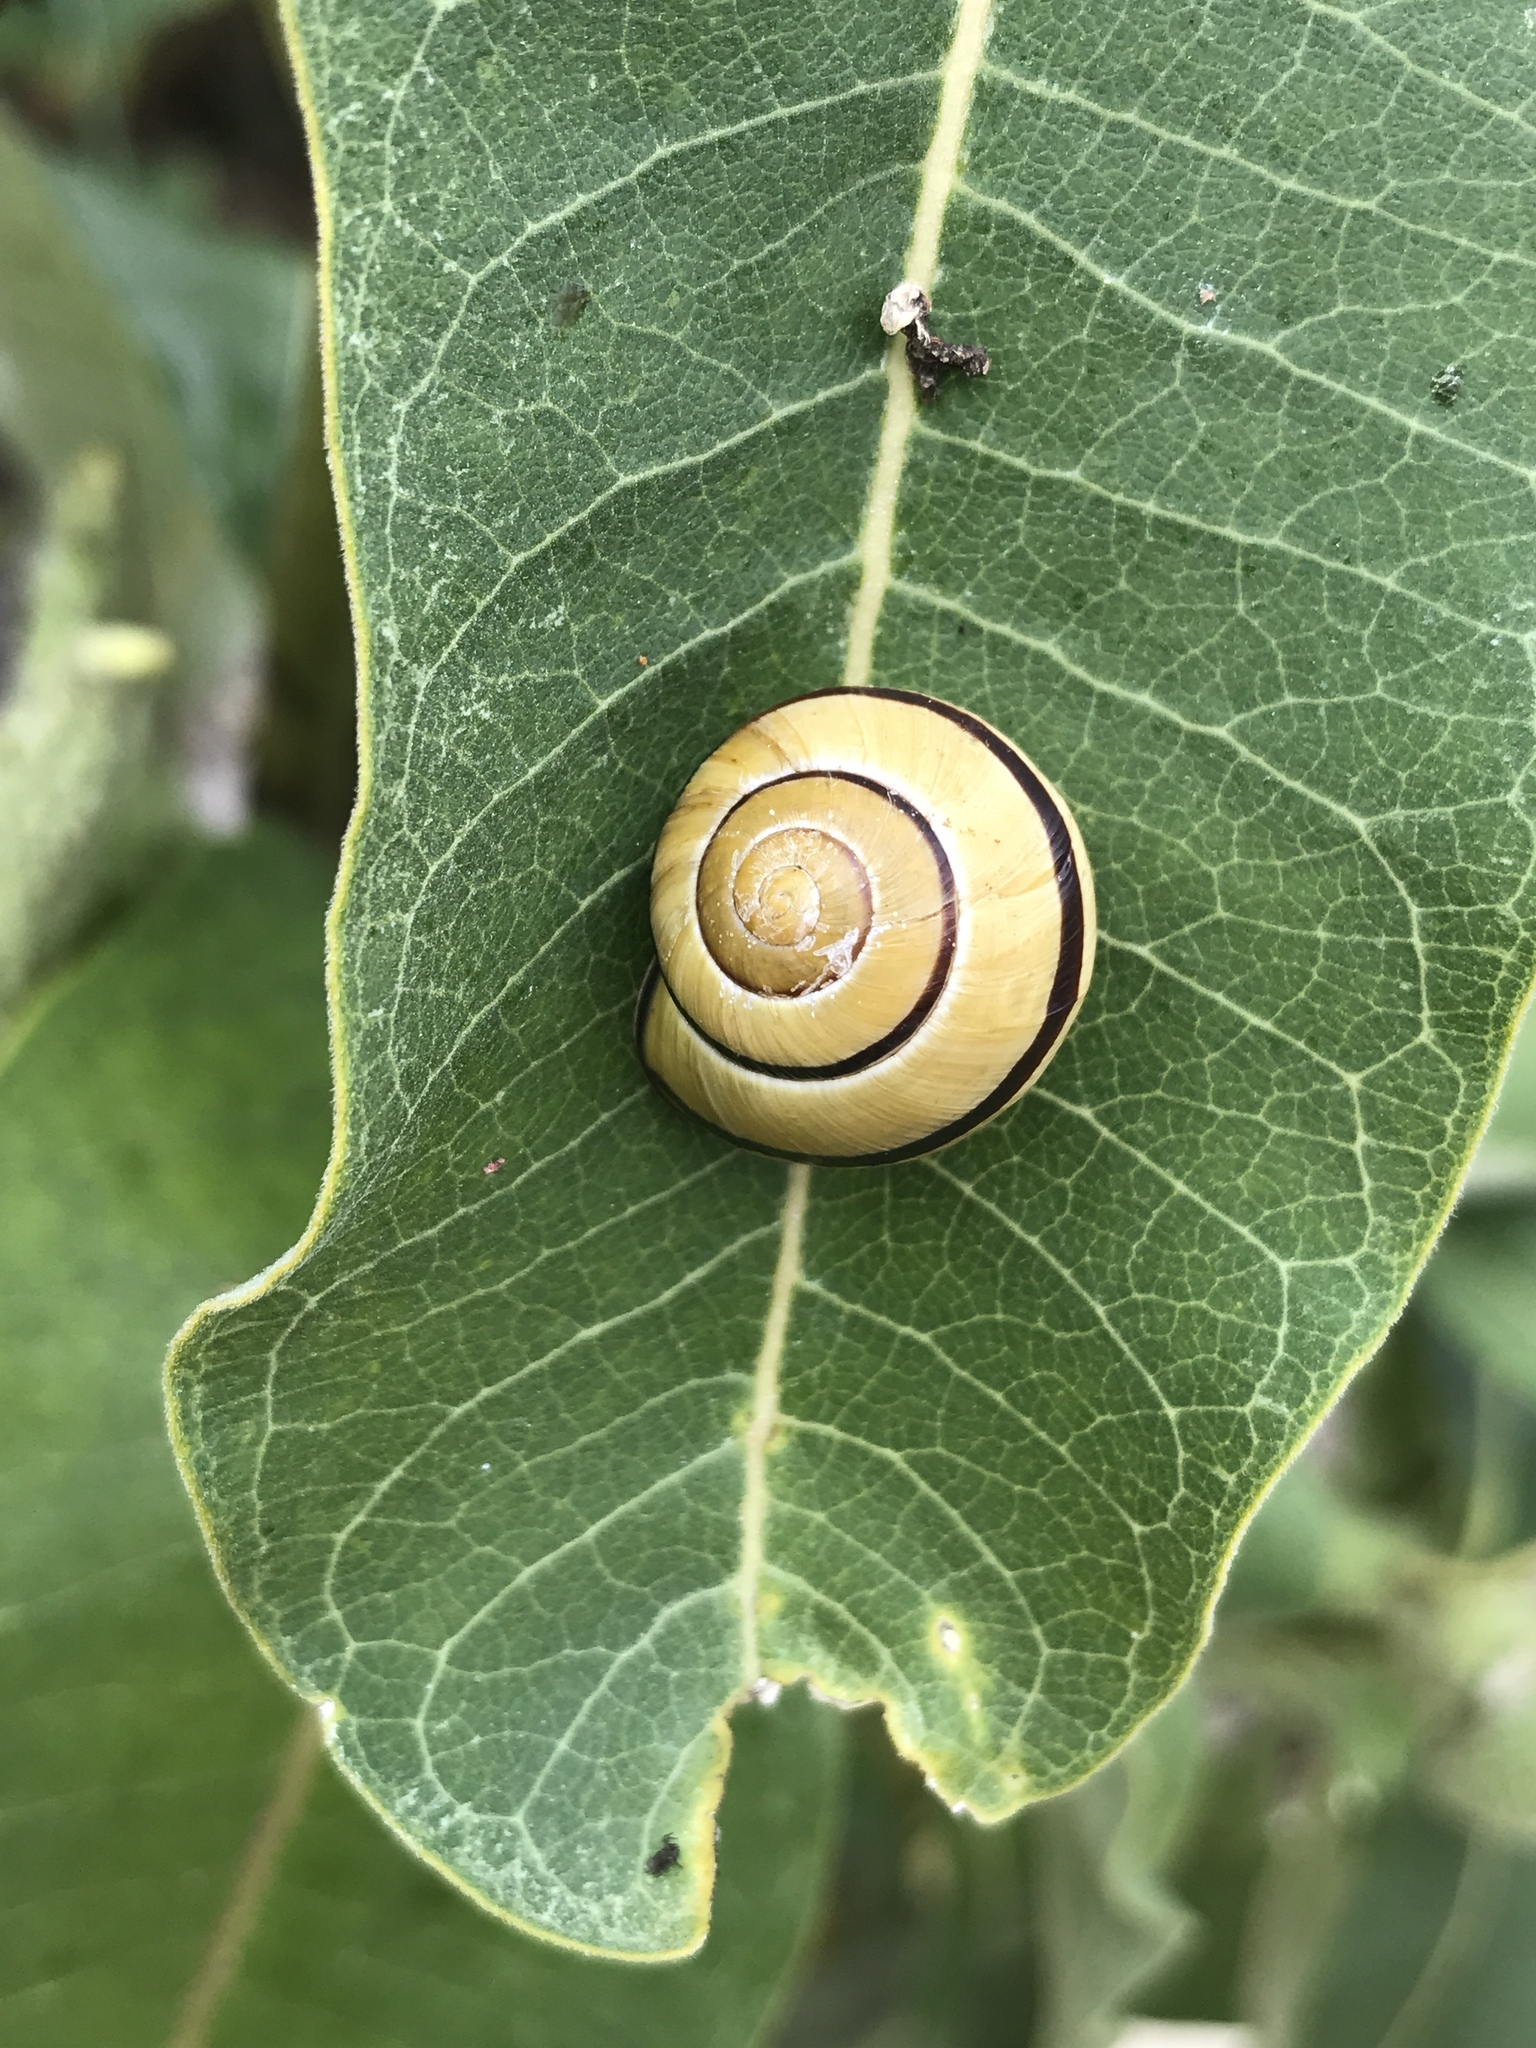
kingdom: Animalia
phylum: Mollusca
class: Gastropoda
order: Stylommatophora
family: Helicidae
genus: Cepaea
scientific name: Cepaea nemoralis
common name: Grovesnail
